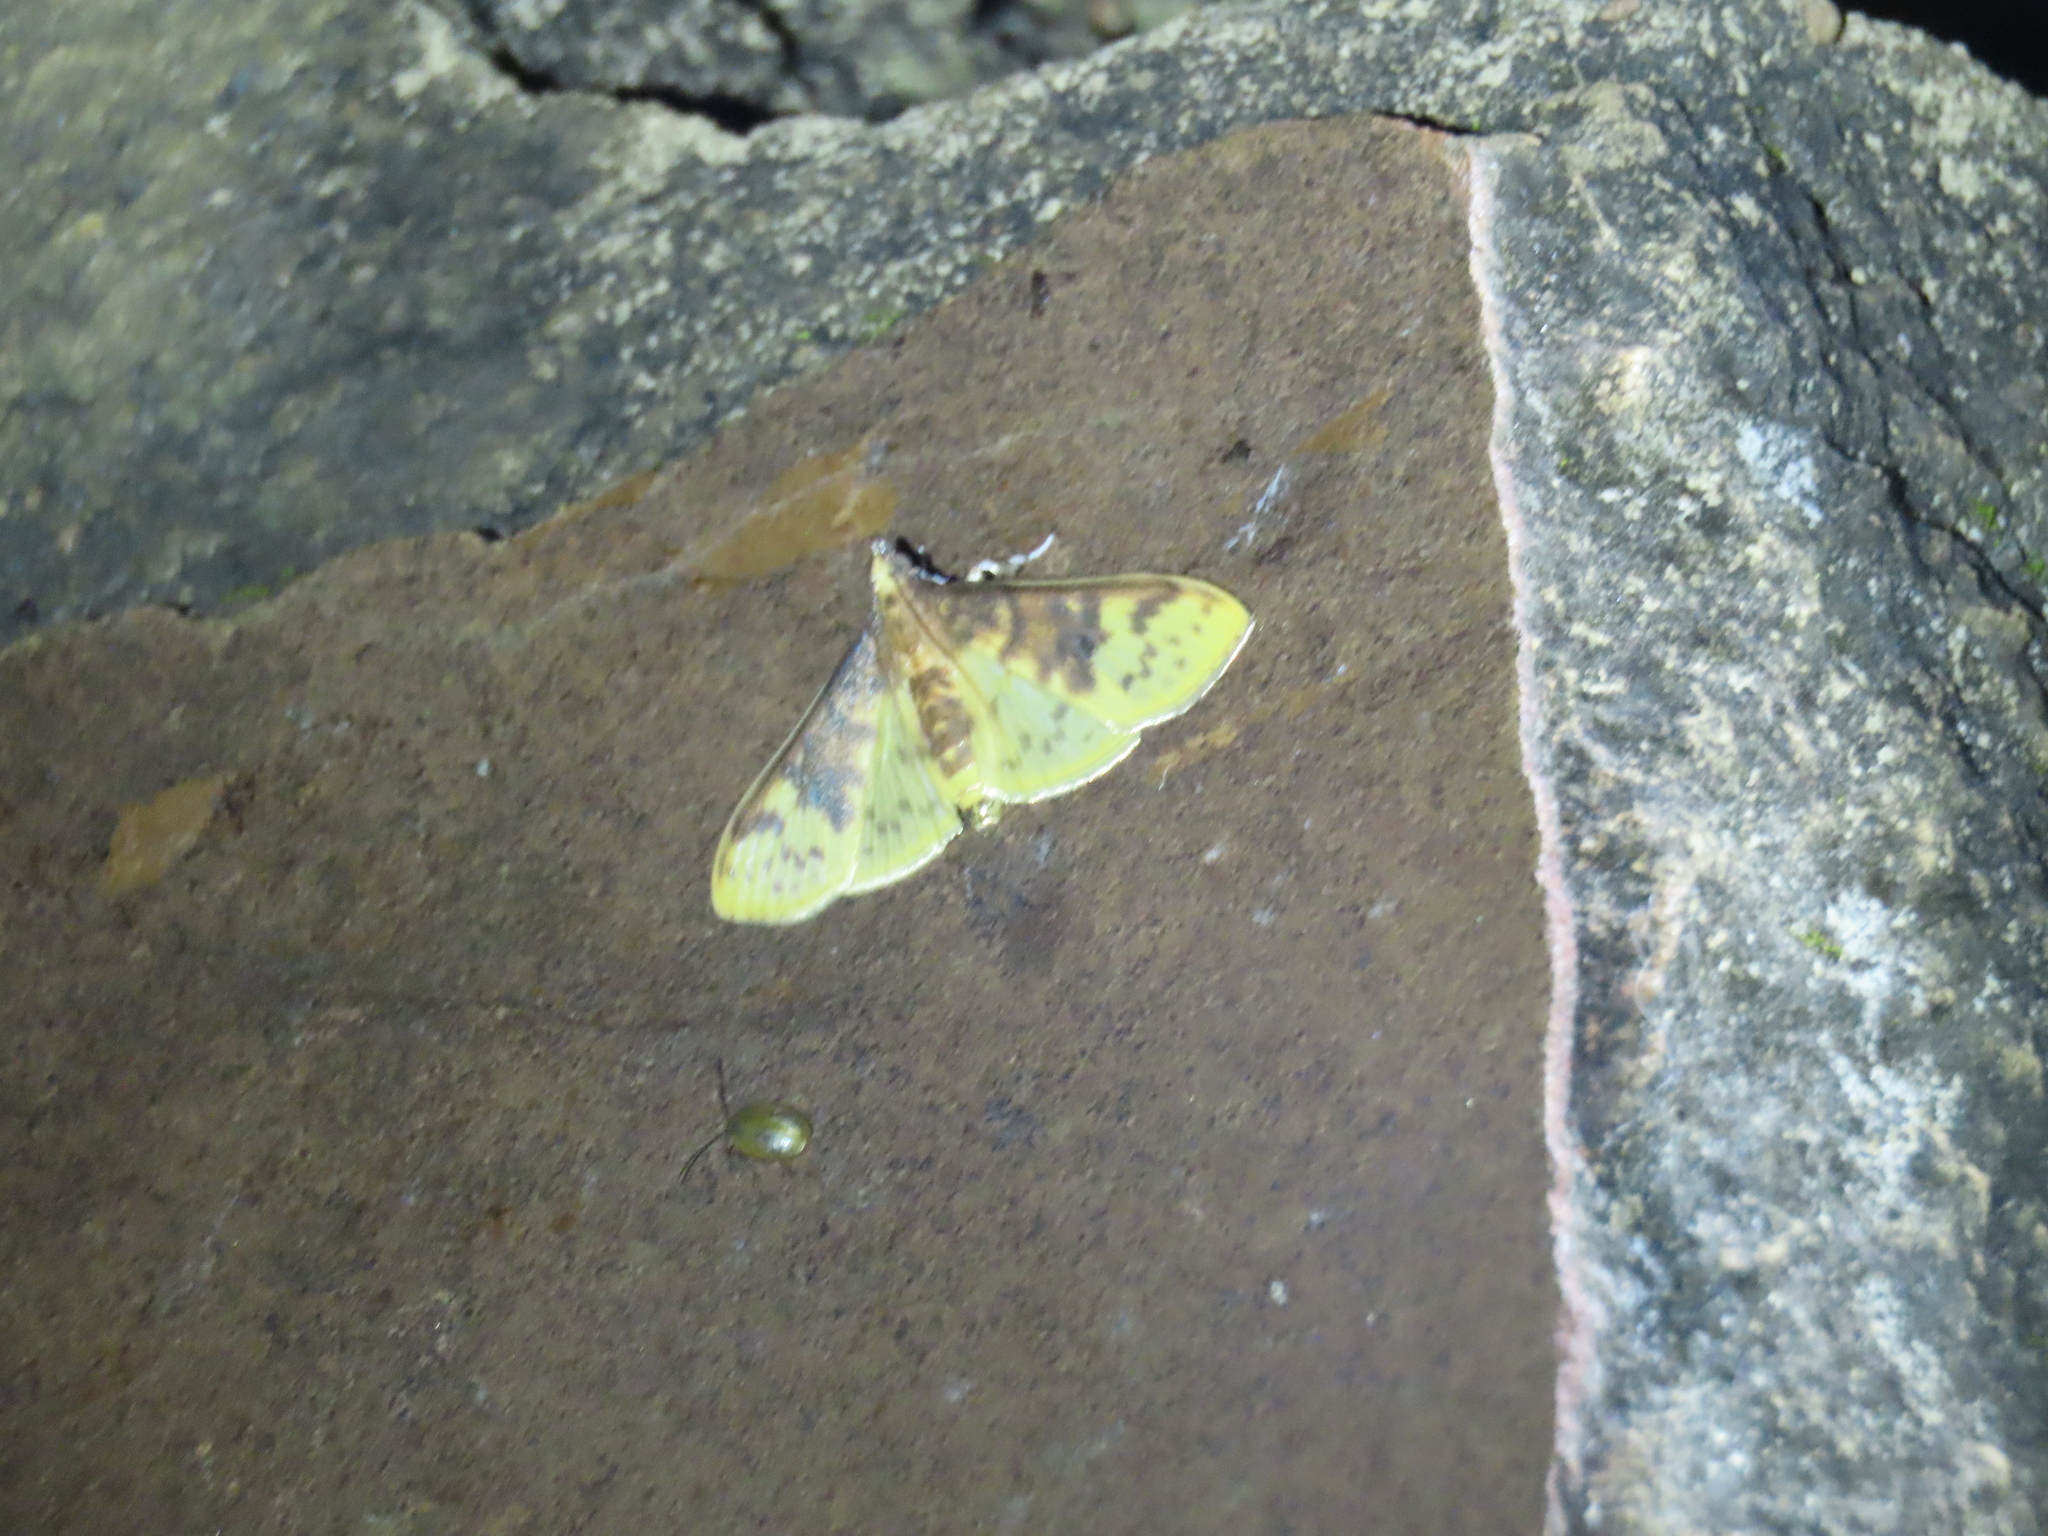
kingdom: Animalia
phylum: Arthropoda
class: Insecta
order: Lepidoptera
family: Crambidae
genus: Ghesquierellana
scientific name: Ghesquierellana hirtusalis
